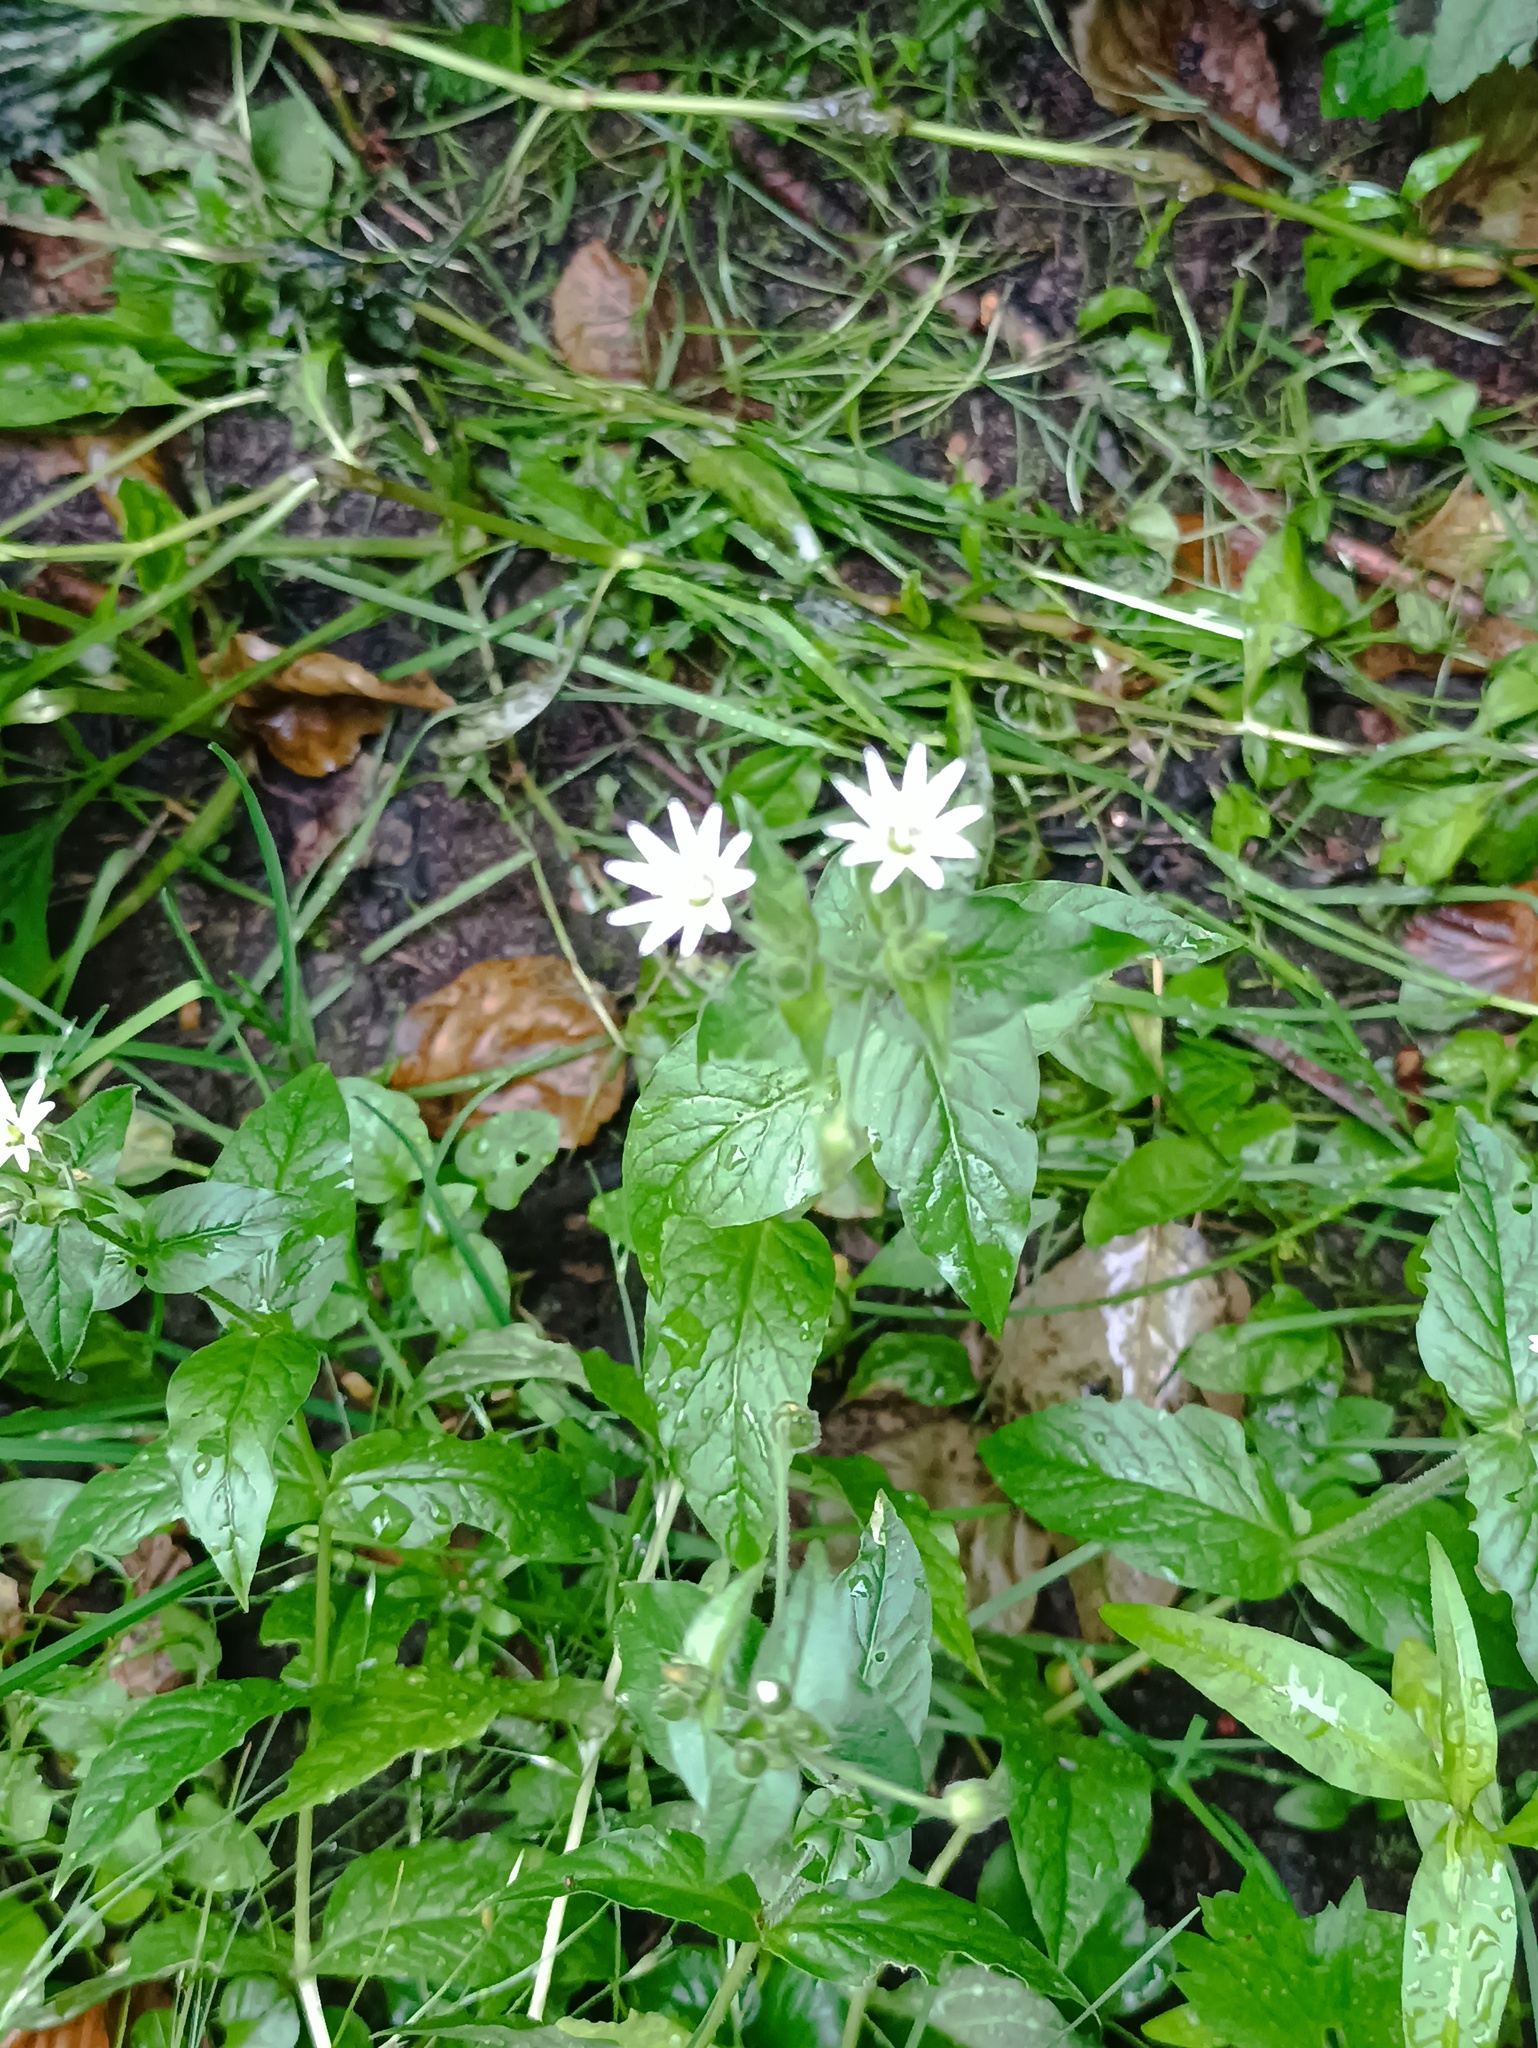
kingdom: Plantae
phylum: Tracheophyta
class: Magnoliopsida
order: Caryophyllales
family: Caryophyllaceae
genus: Stellaria
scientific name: Stellaria aquatica
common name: Water chickweed
